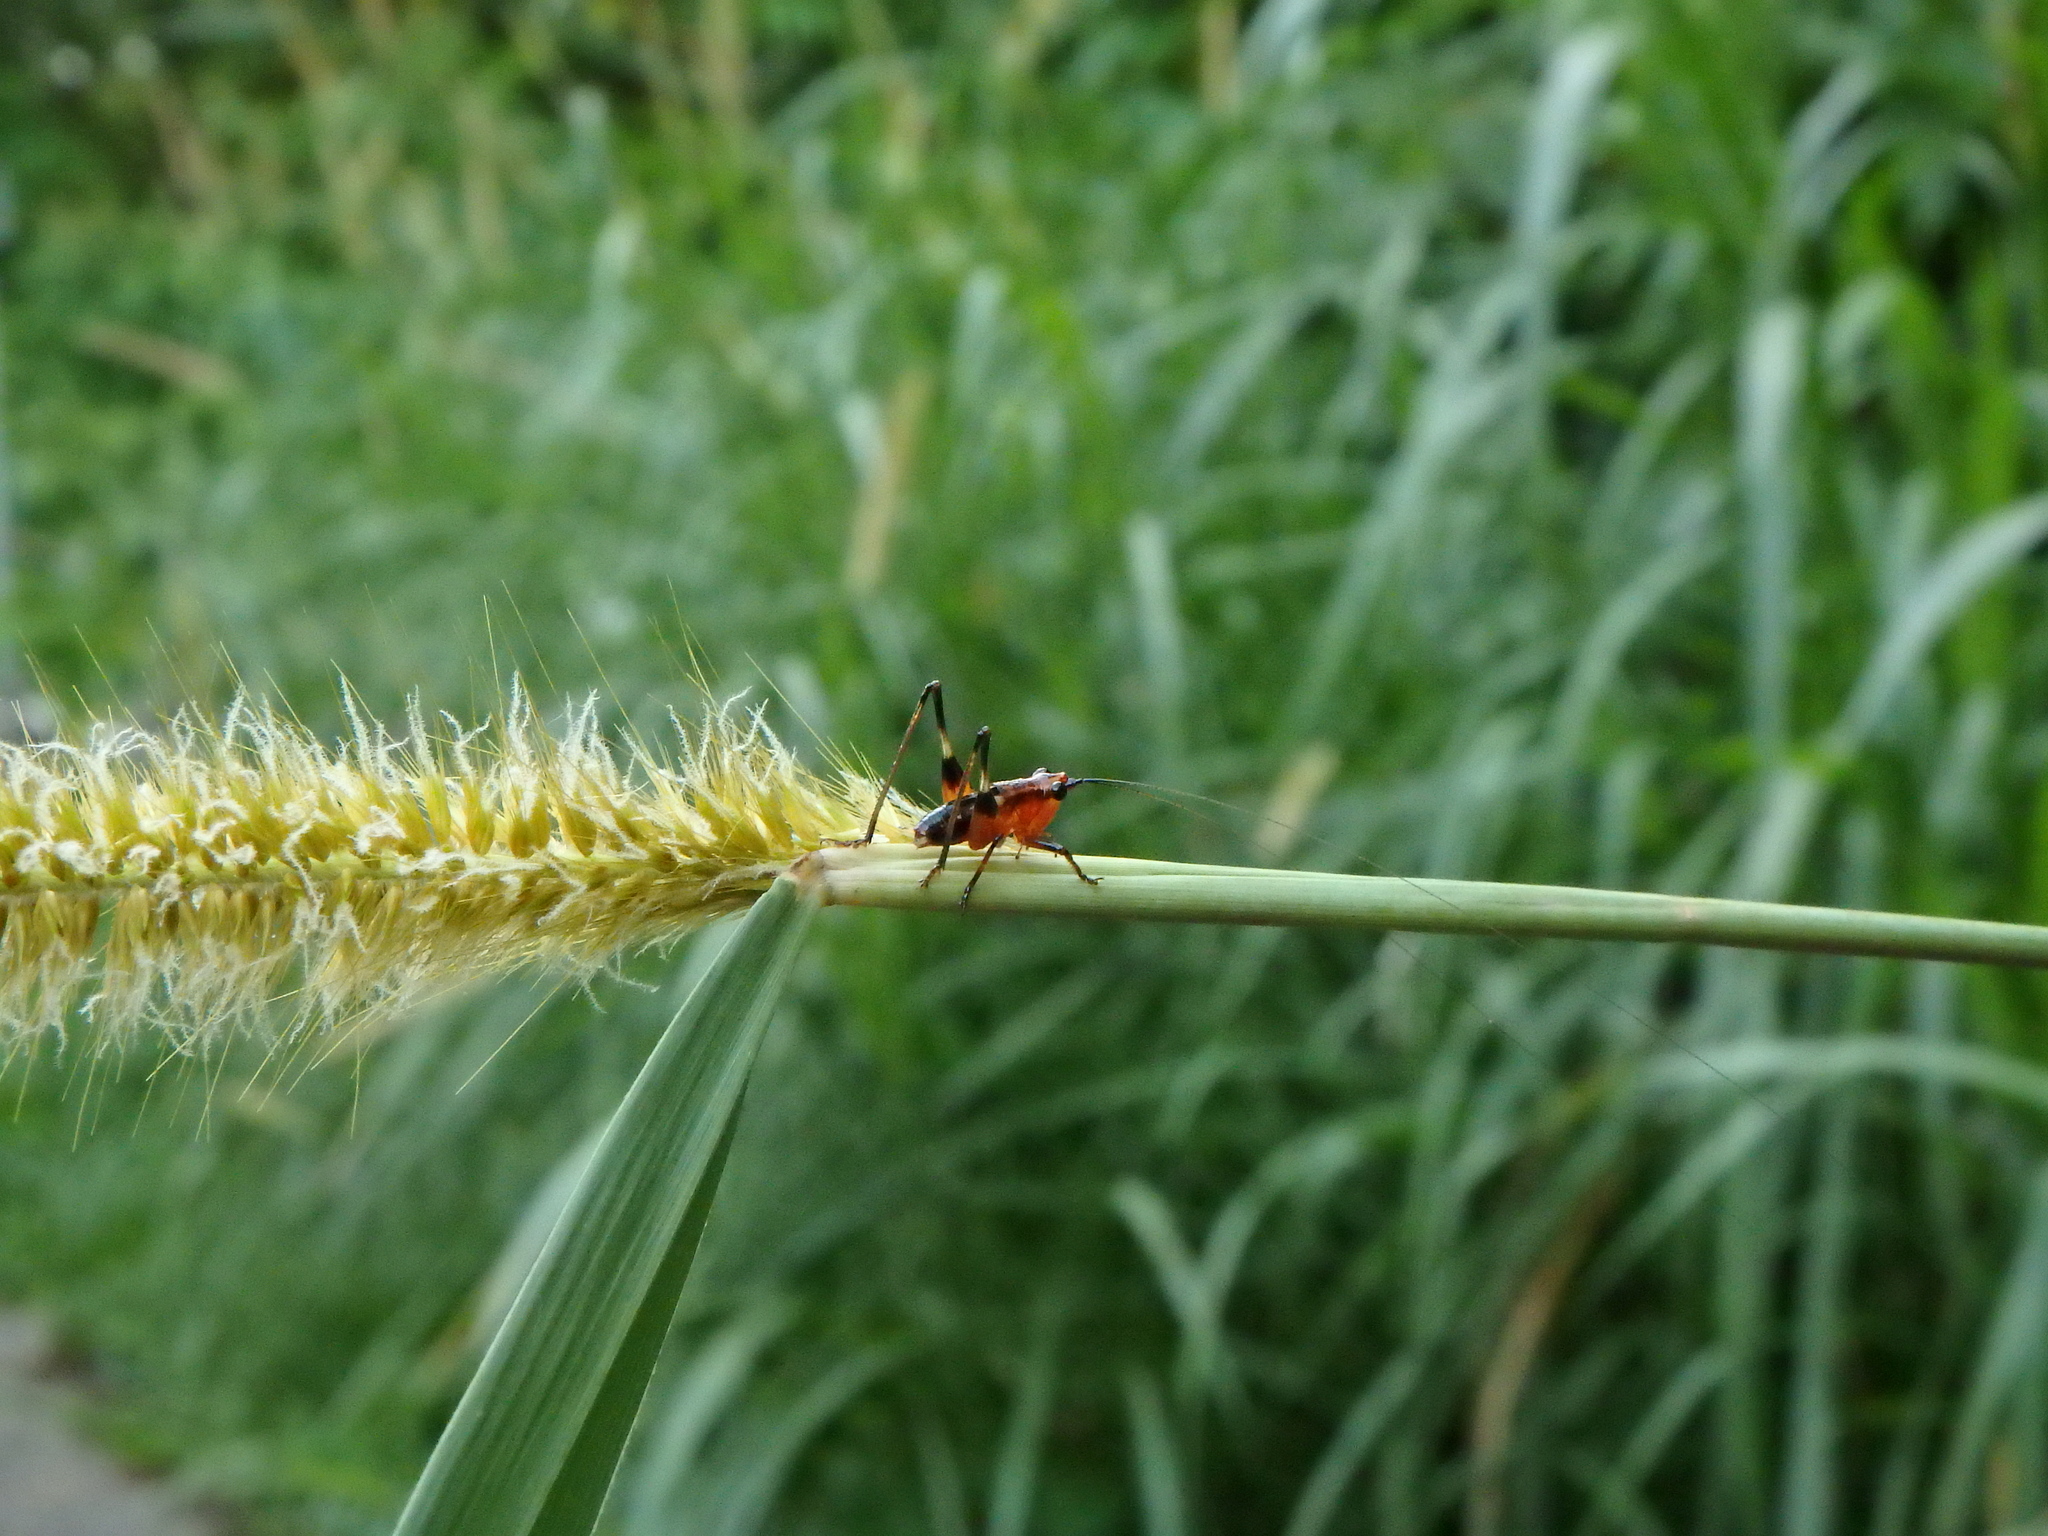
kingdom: Animalia
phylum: Arthropoda
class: Insecta
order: Orthoptera
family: Tettigoniidae
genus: Conocephalus
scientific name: Conocephalus melaenus
